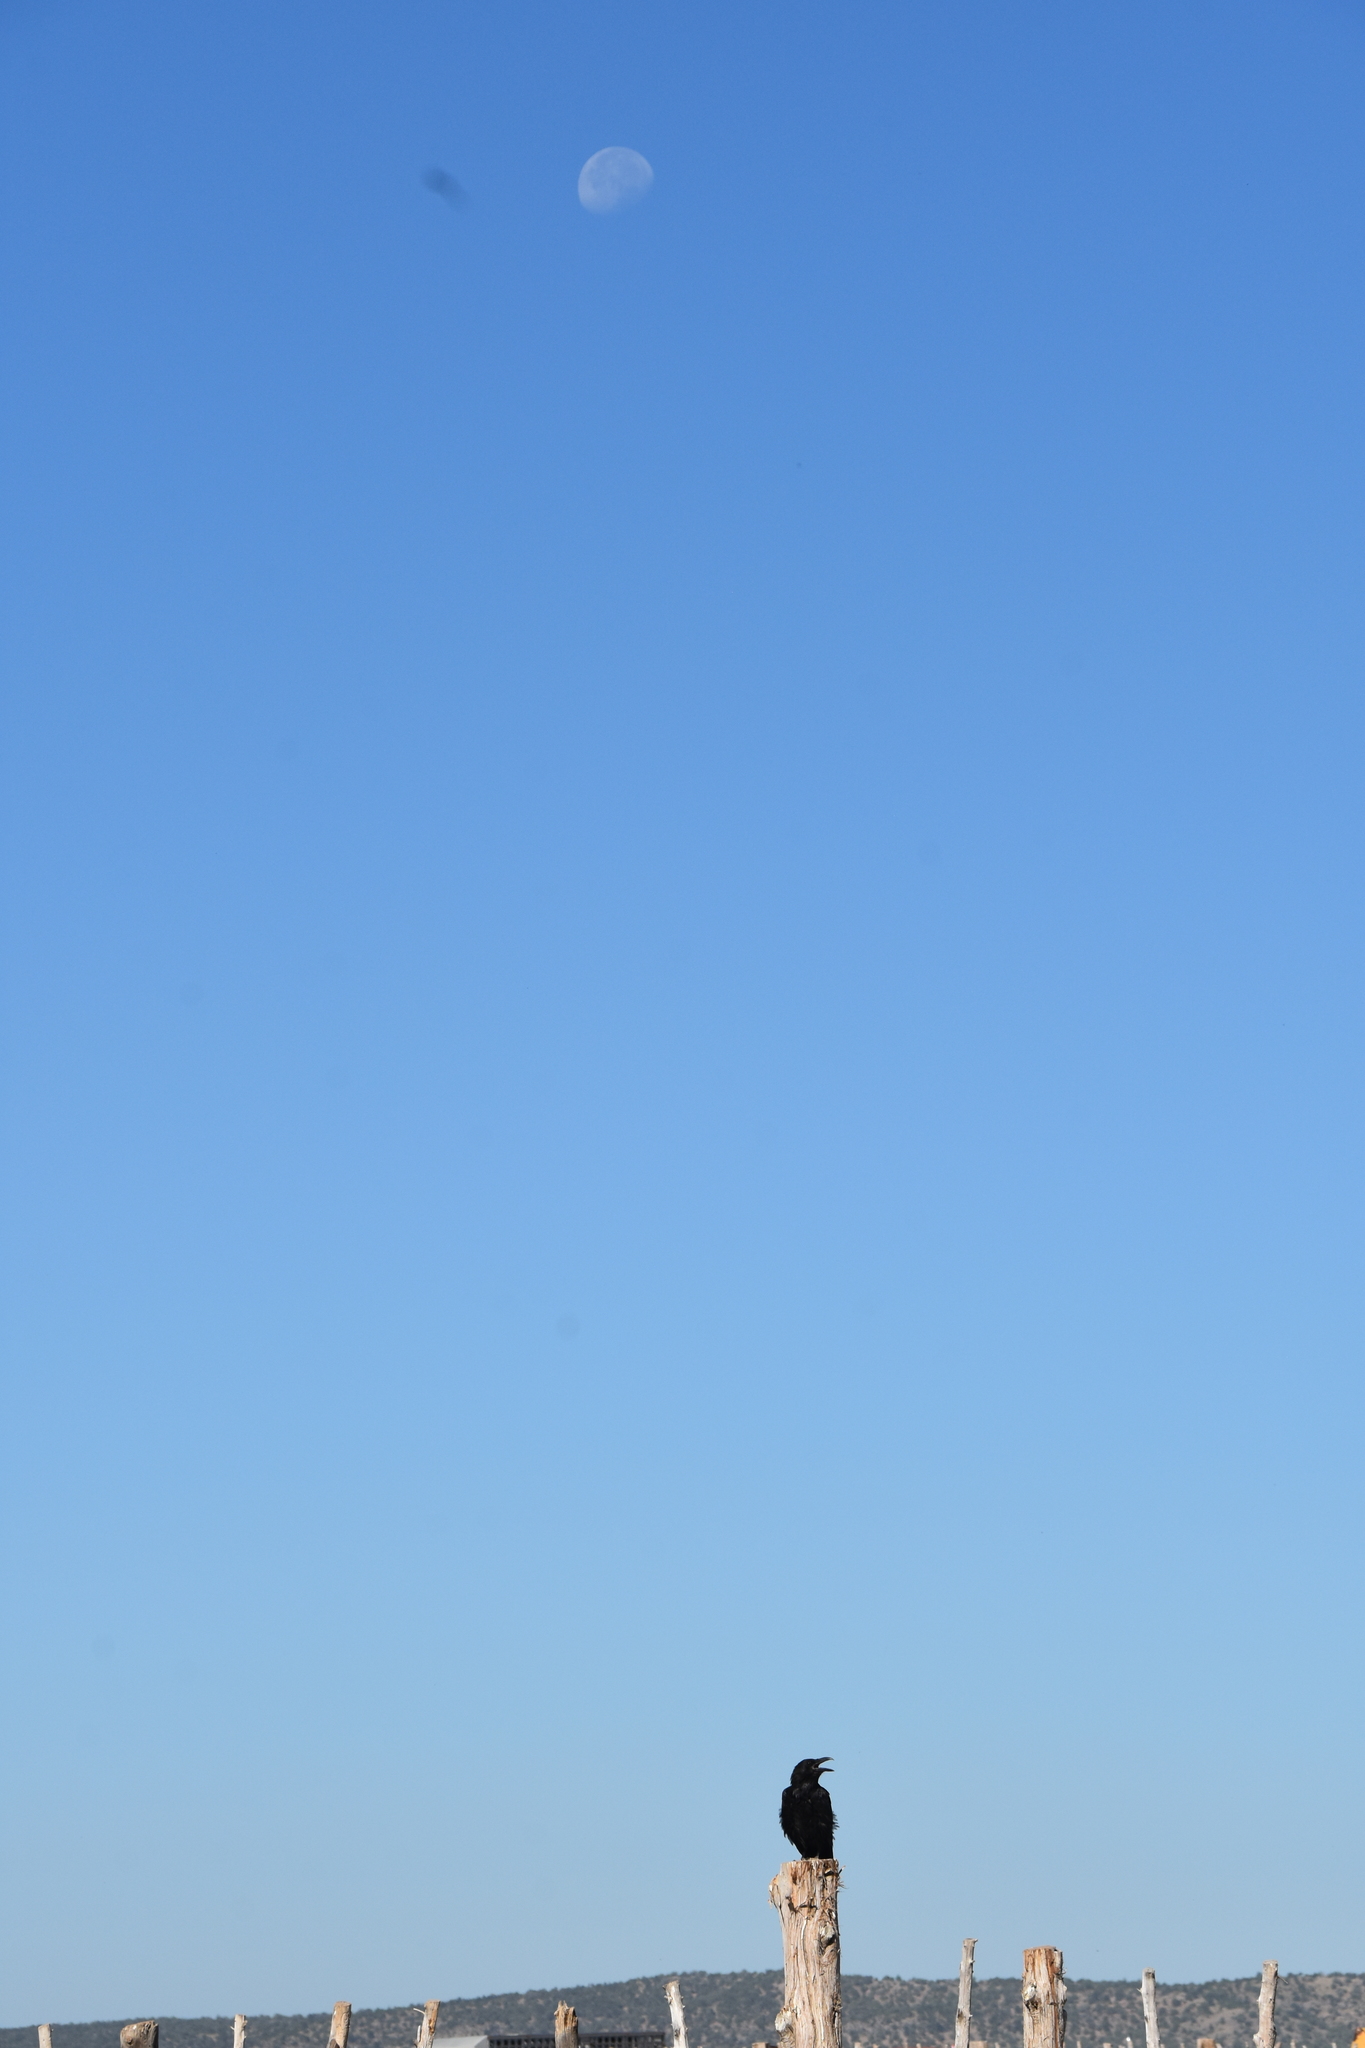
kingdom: Animalia
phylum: Chordata
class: Aves
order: Passeriformes
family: Corvidae
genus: Corvus
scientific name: Corvus corax
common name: Common raven
